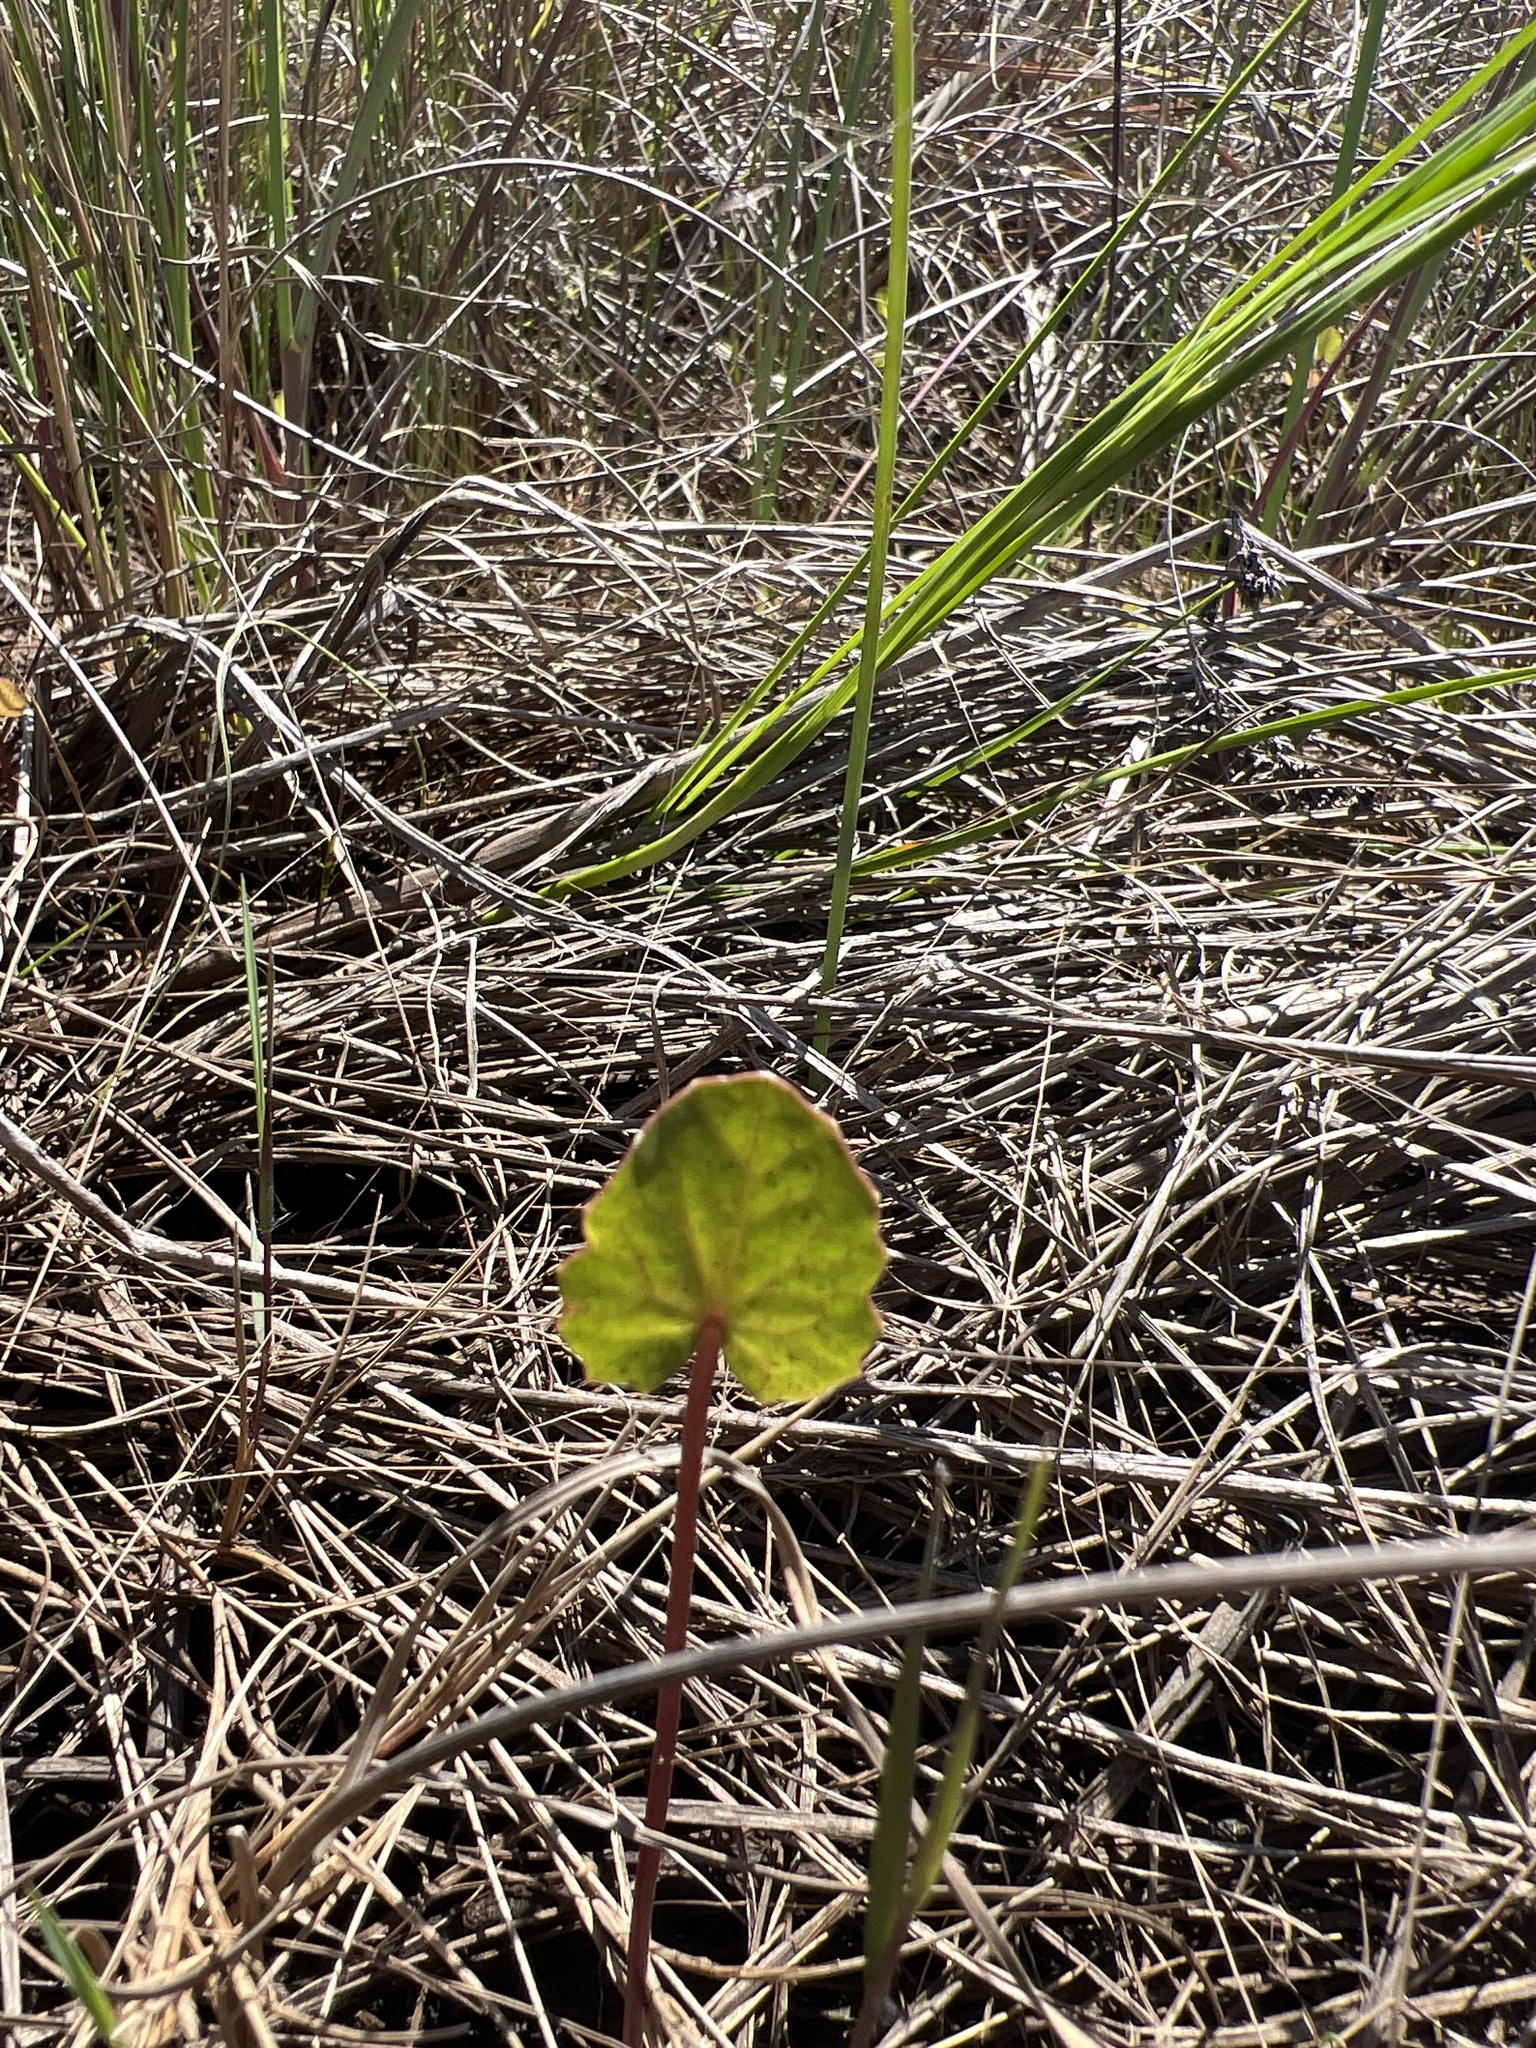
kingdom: Plantae
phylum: Tracheophyta
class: Magnoliopsida
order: Apiales
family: Apiaceae
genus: Centella
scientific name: Centella erecta
